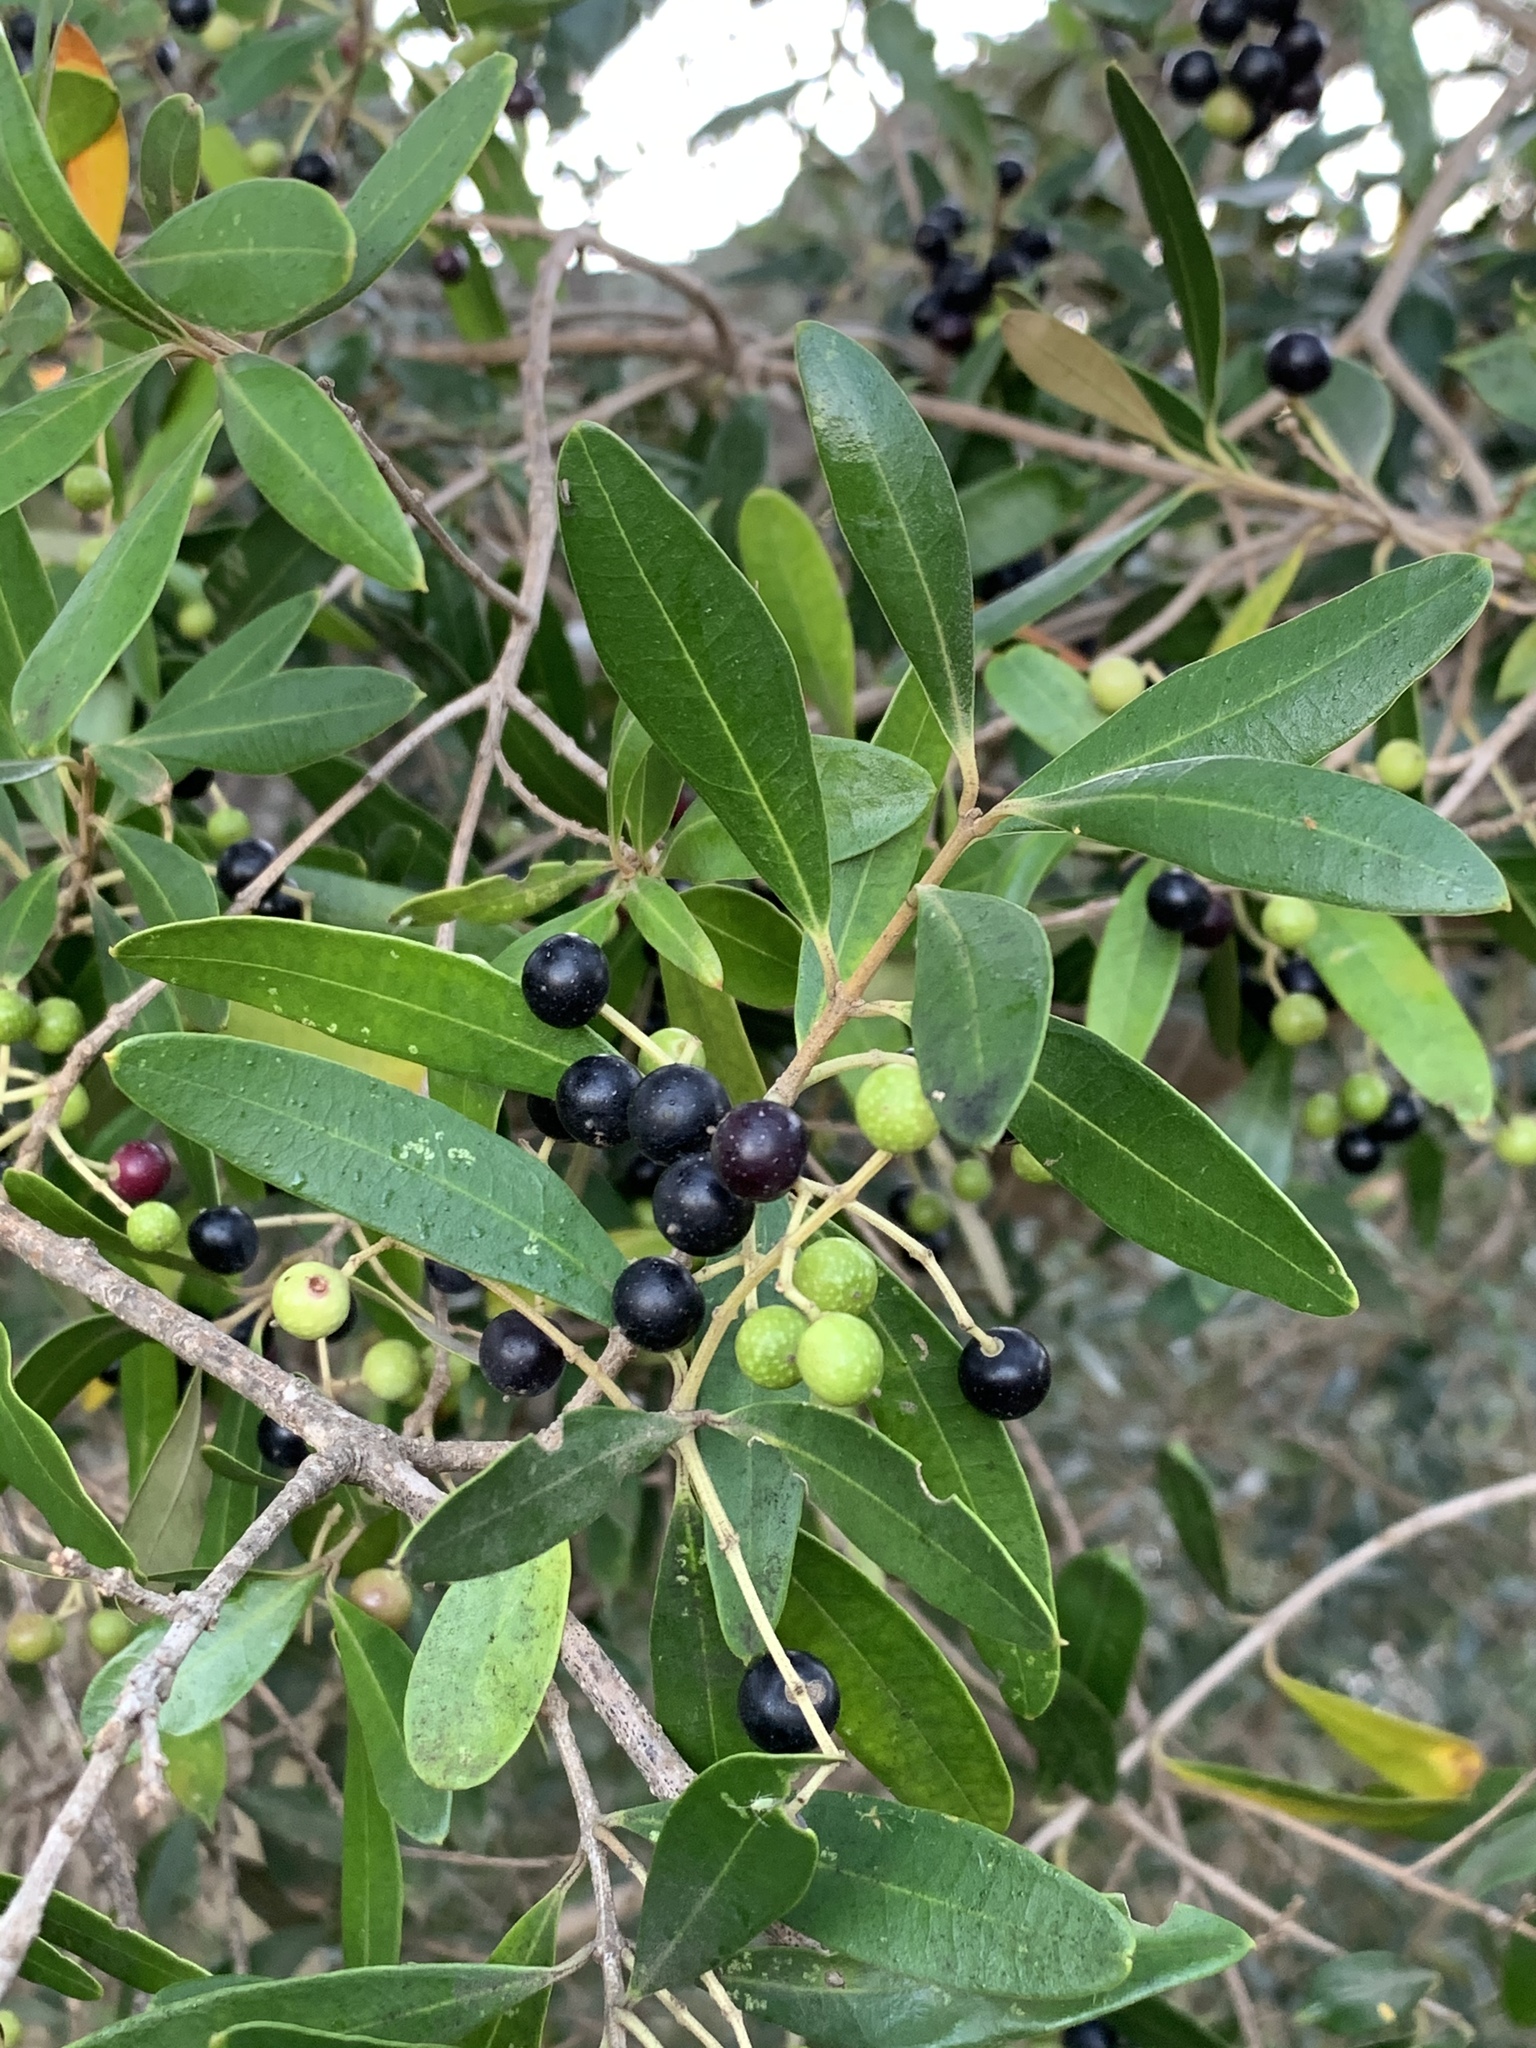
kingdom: Plantae
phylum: Tracheophyta
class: Magnoliopsida
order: Lamiales
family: Oleaceae
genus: Olea
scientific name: Olea europaea
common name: Olive
